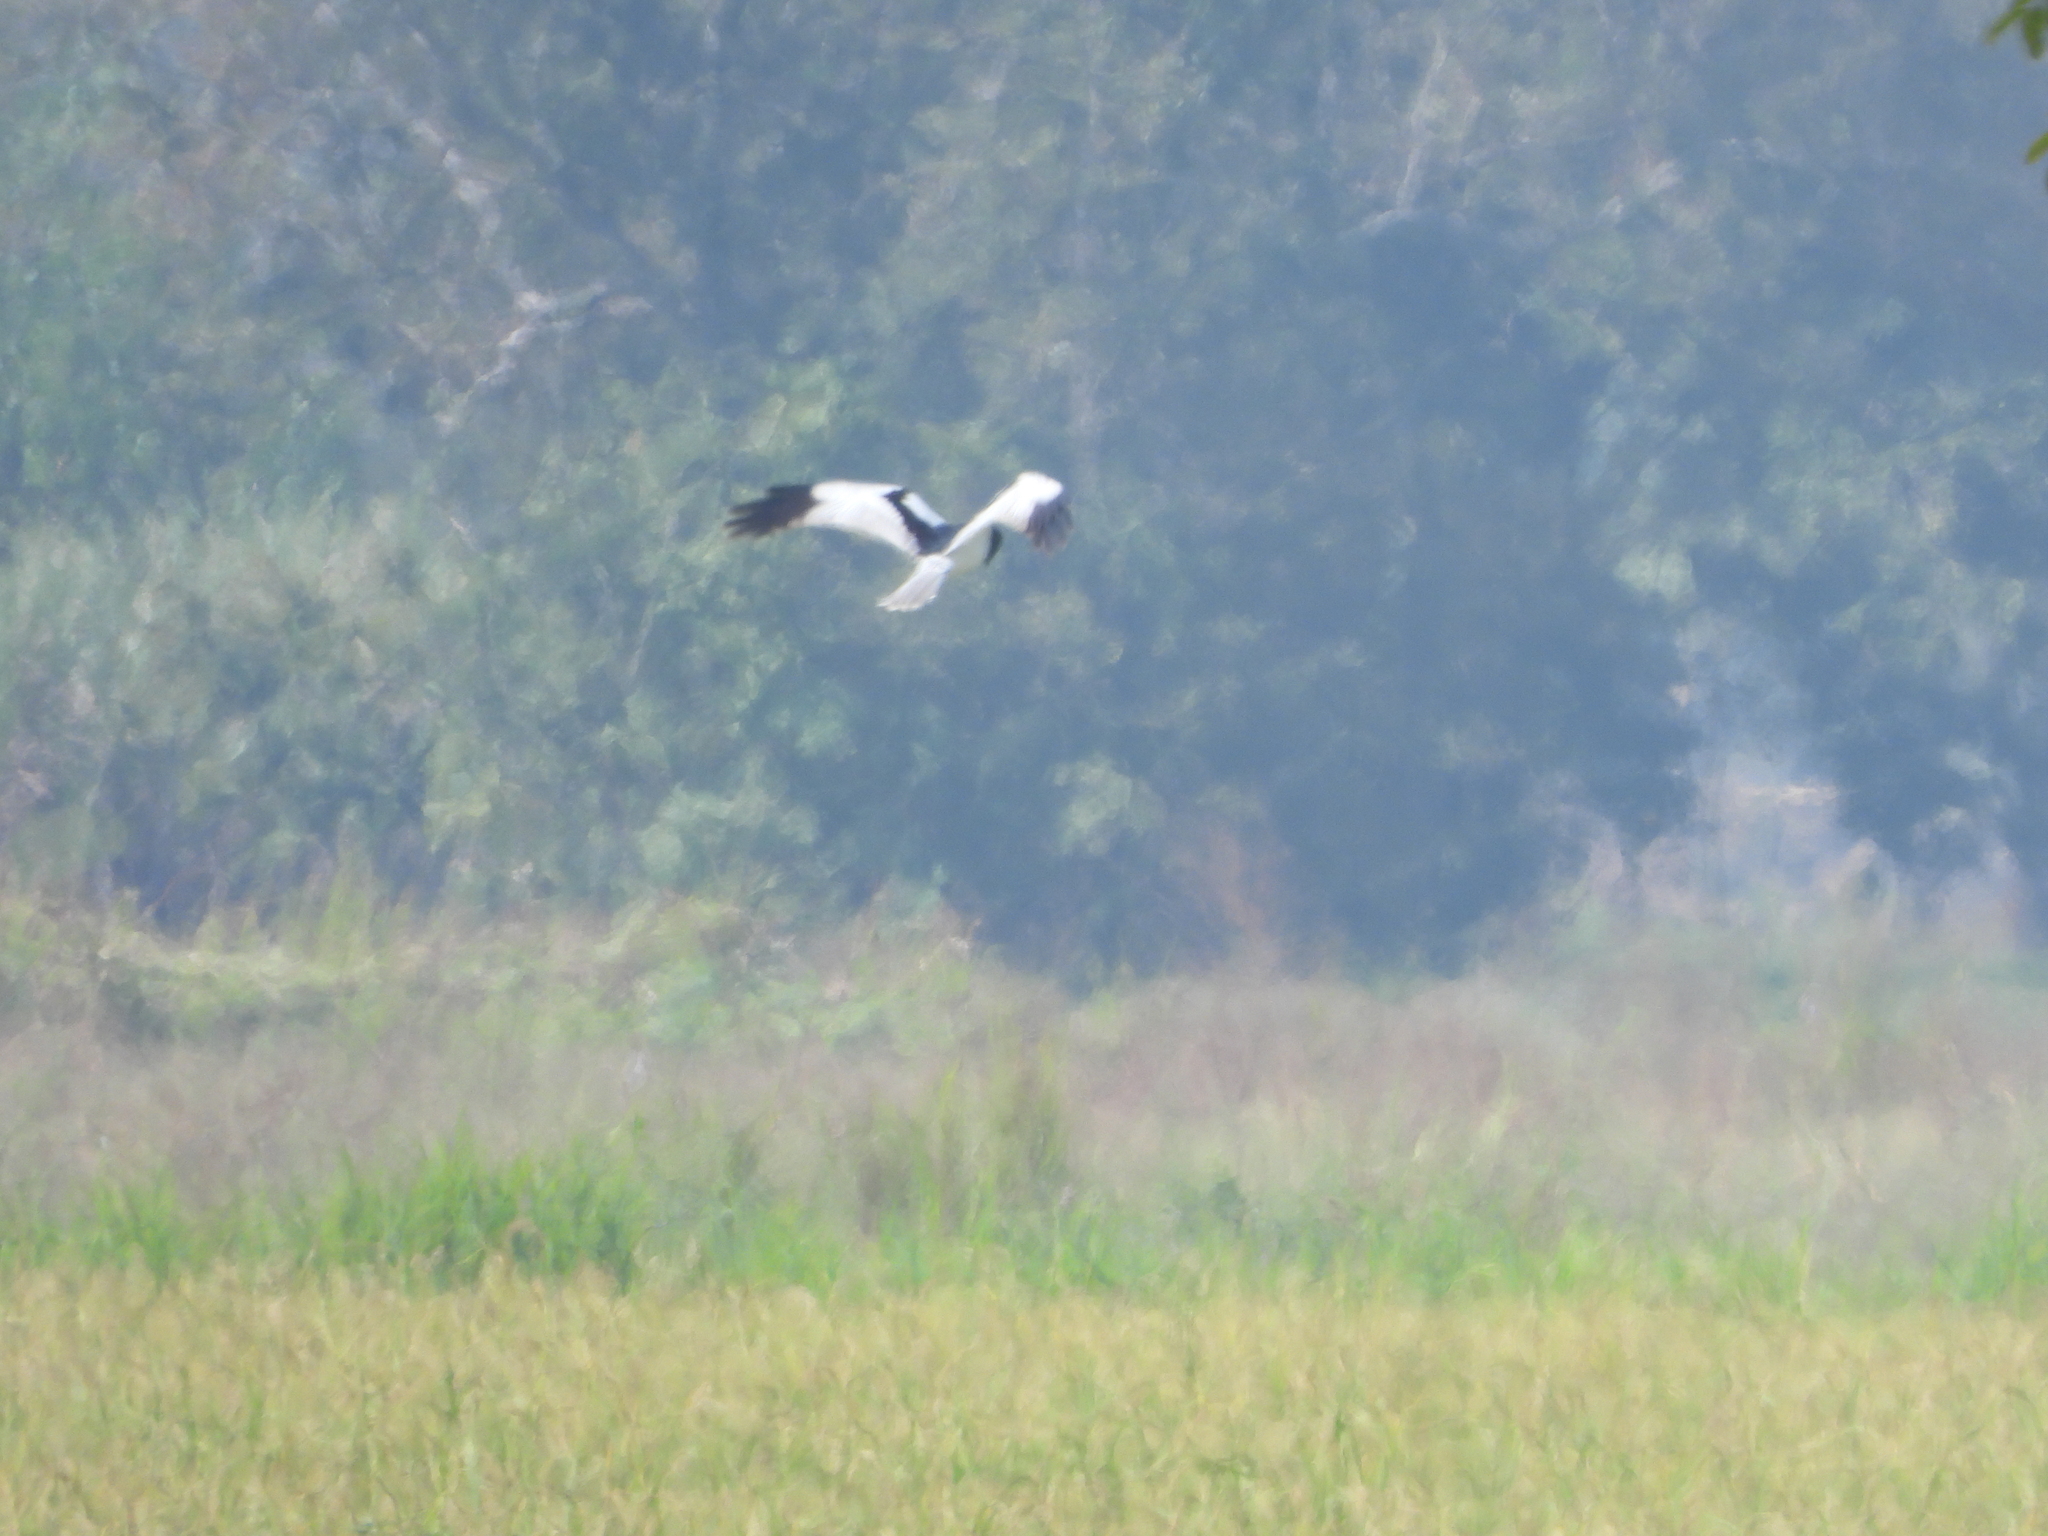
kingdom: Animalia
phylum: Chordata
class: Aves
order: Accipitriformes
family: Accipitridae
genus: Circus
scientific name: Circus melanoleucos
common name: Pied harrier
